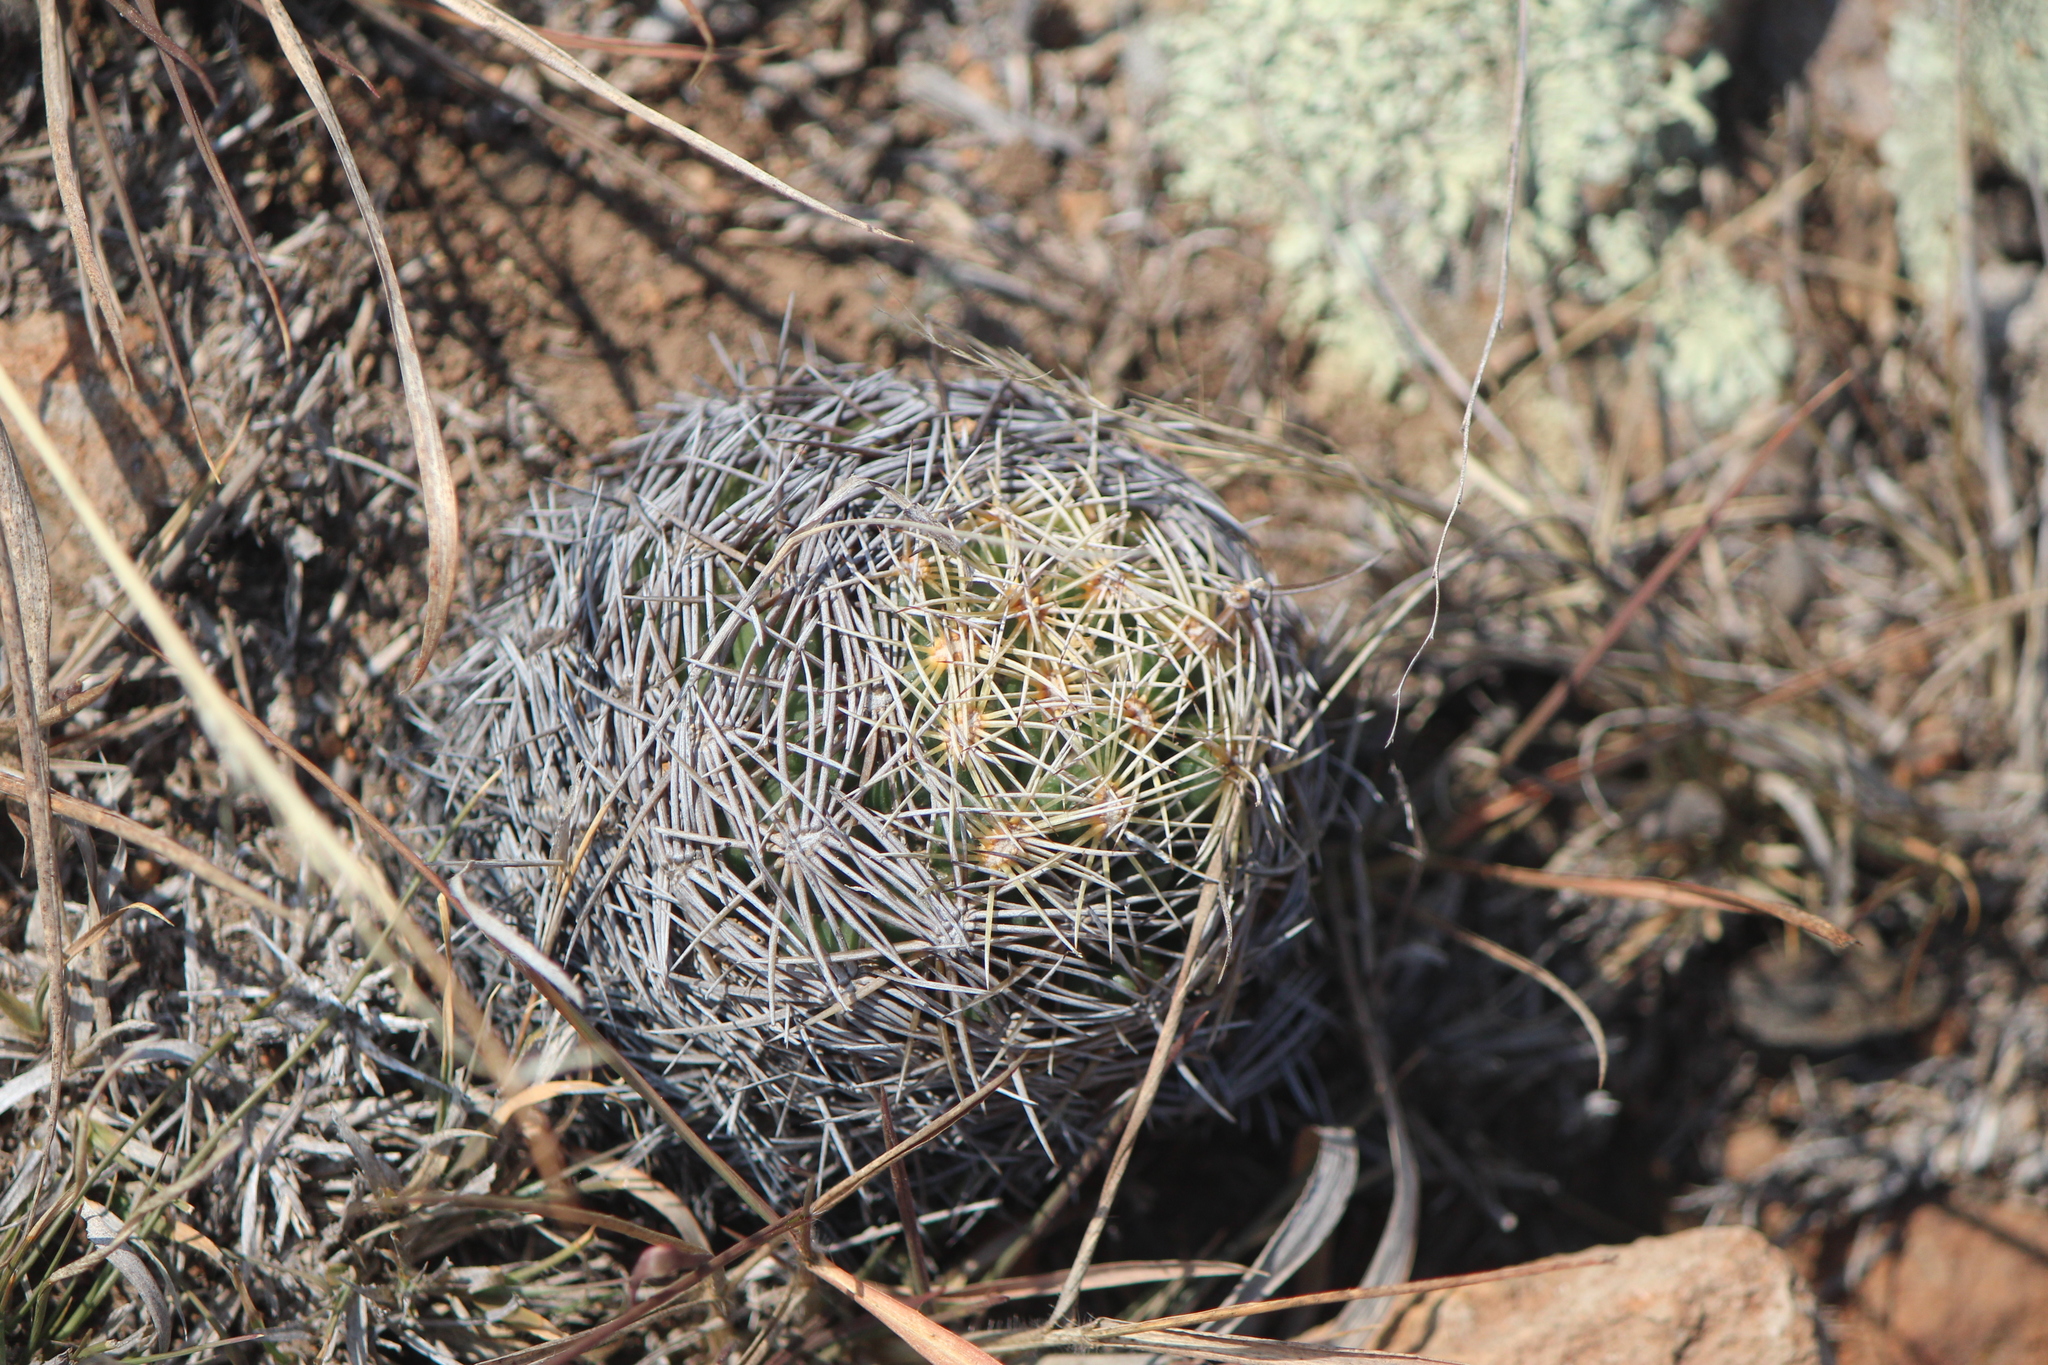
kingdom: Plantae
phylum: Tracheophyta
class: Magnoliopsida
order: Caryophyllales
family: Cactaceae
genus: Coryphantha
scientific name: Coryphantha cornifera
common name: Rhinoceros cactus
